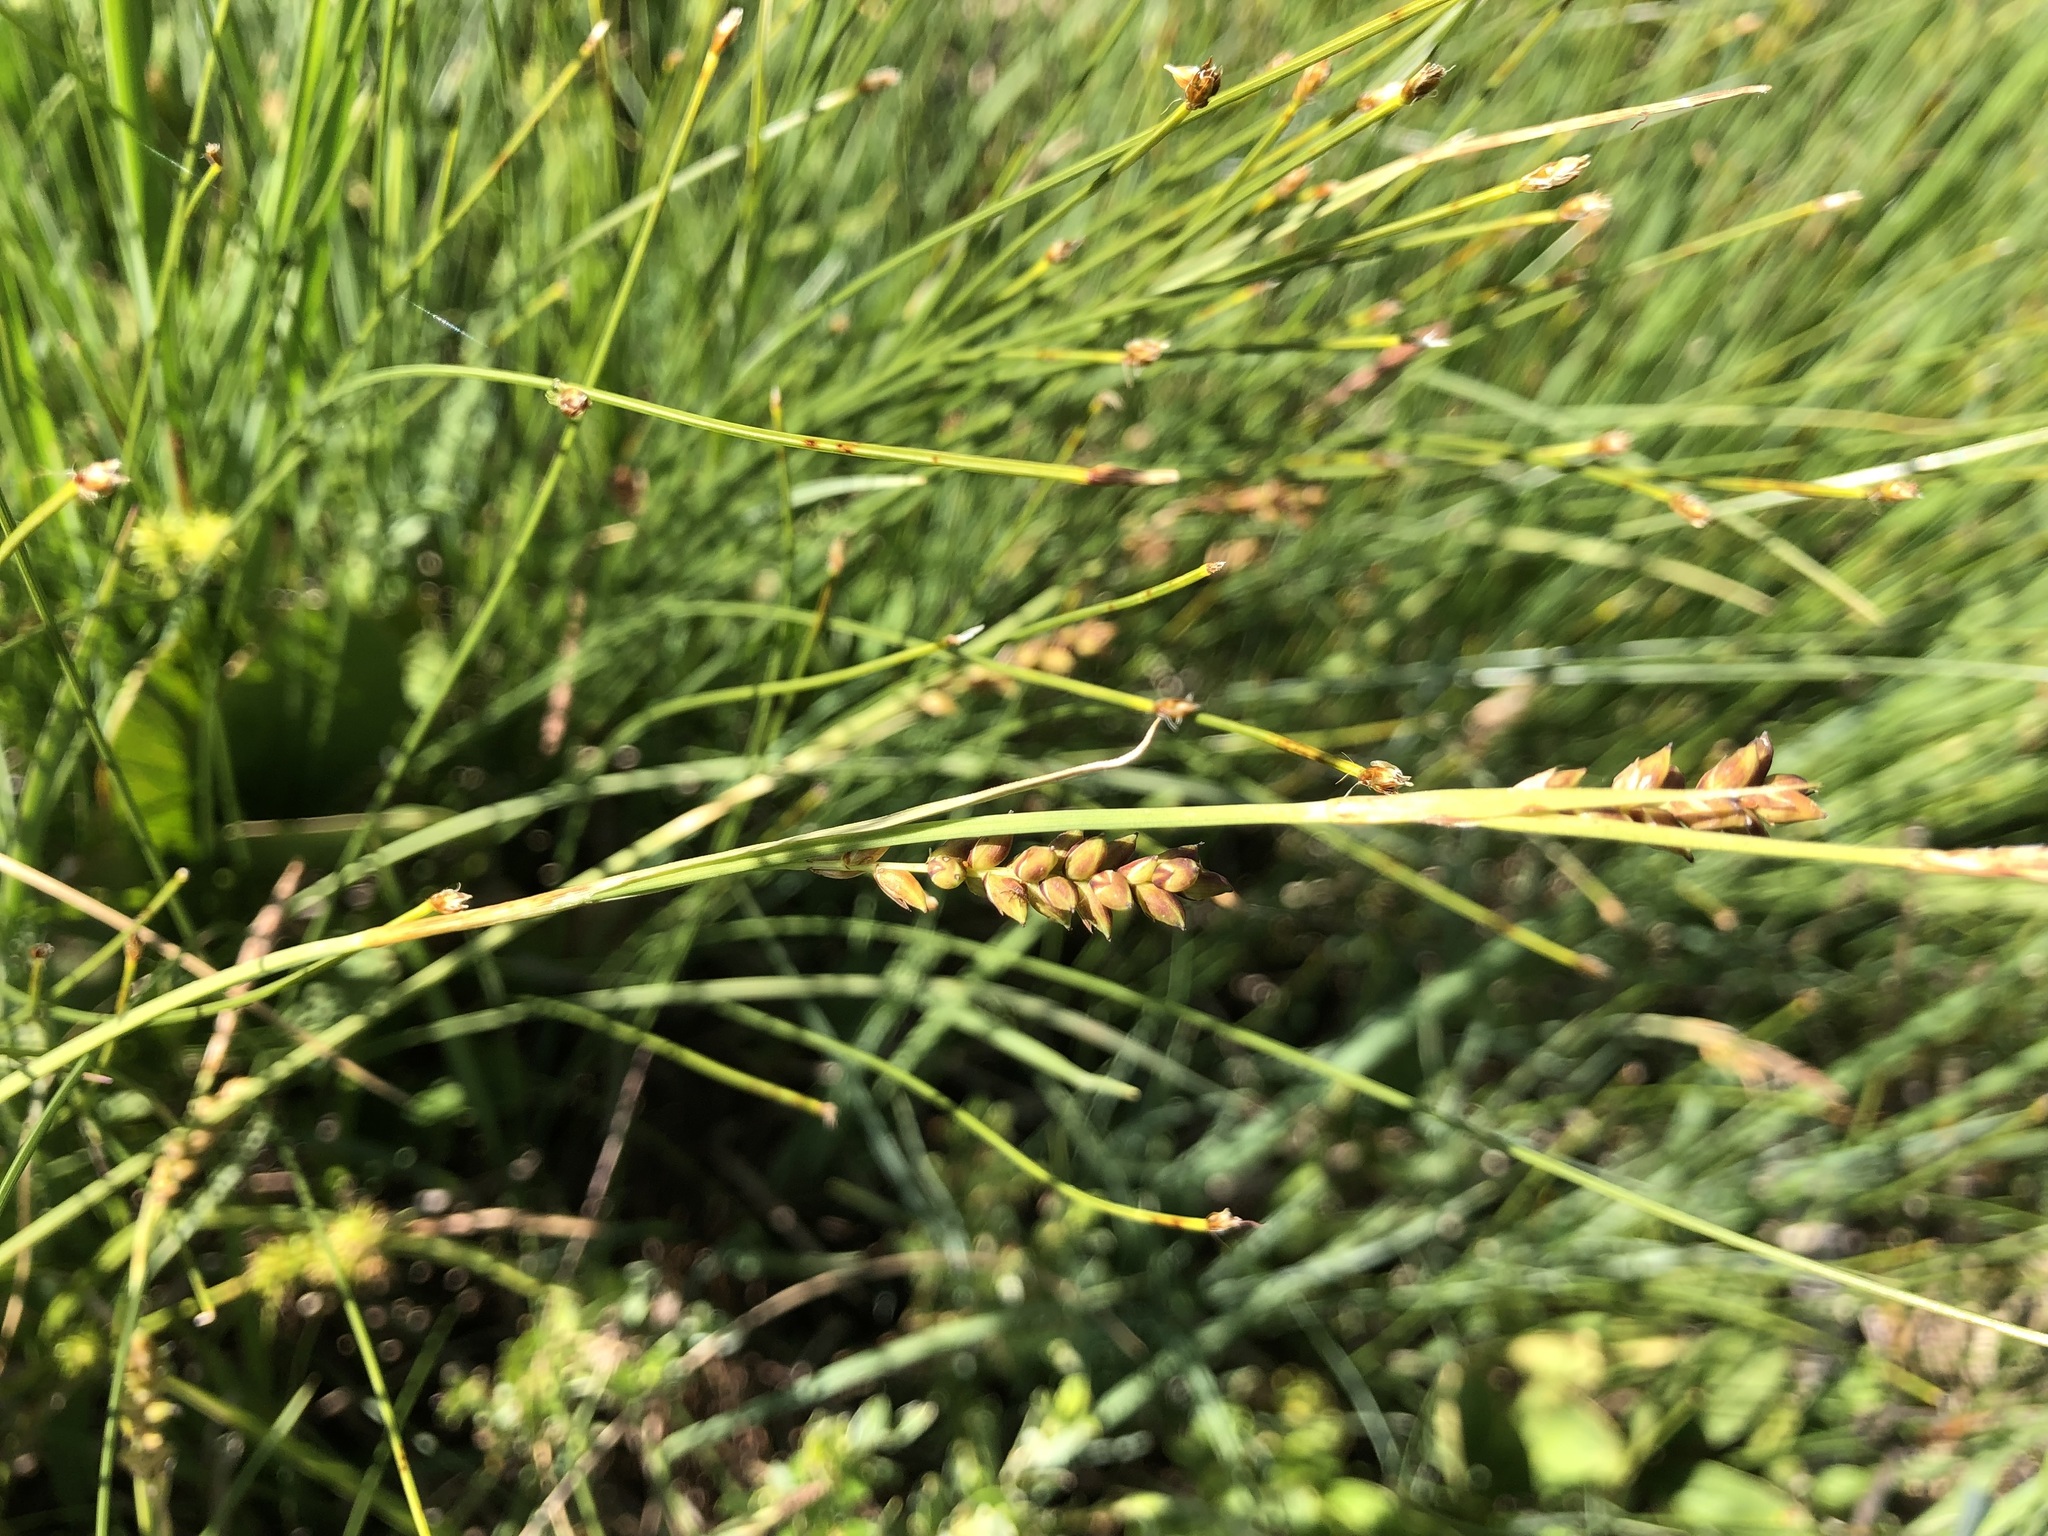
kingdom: Plantae
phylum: Tracheophyta
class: Liliopsida
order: Poales
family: Cyperaceae
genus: Carex
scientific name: Carex panicea
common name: Carnation sedge
